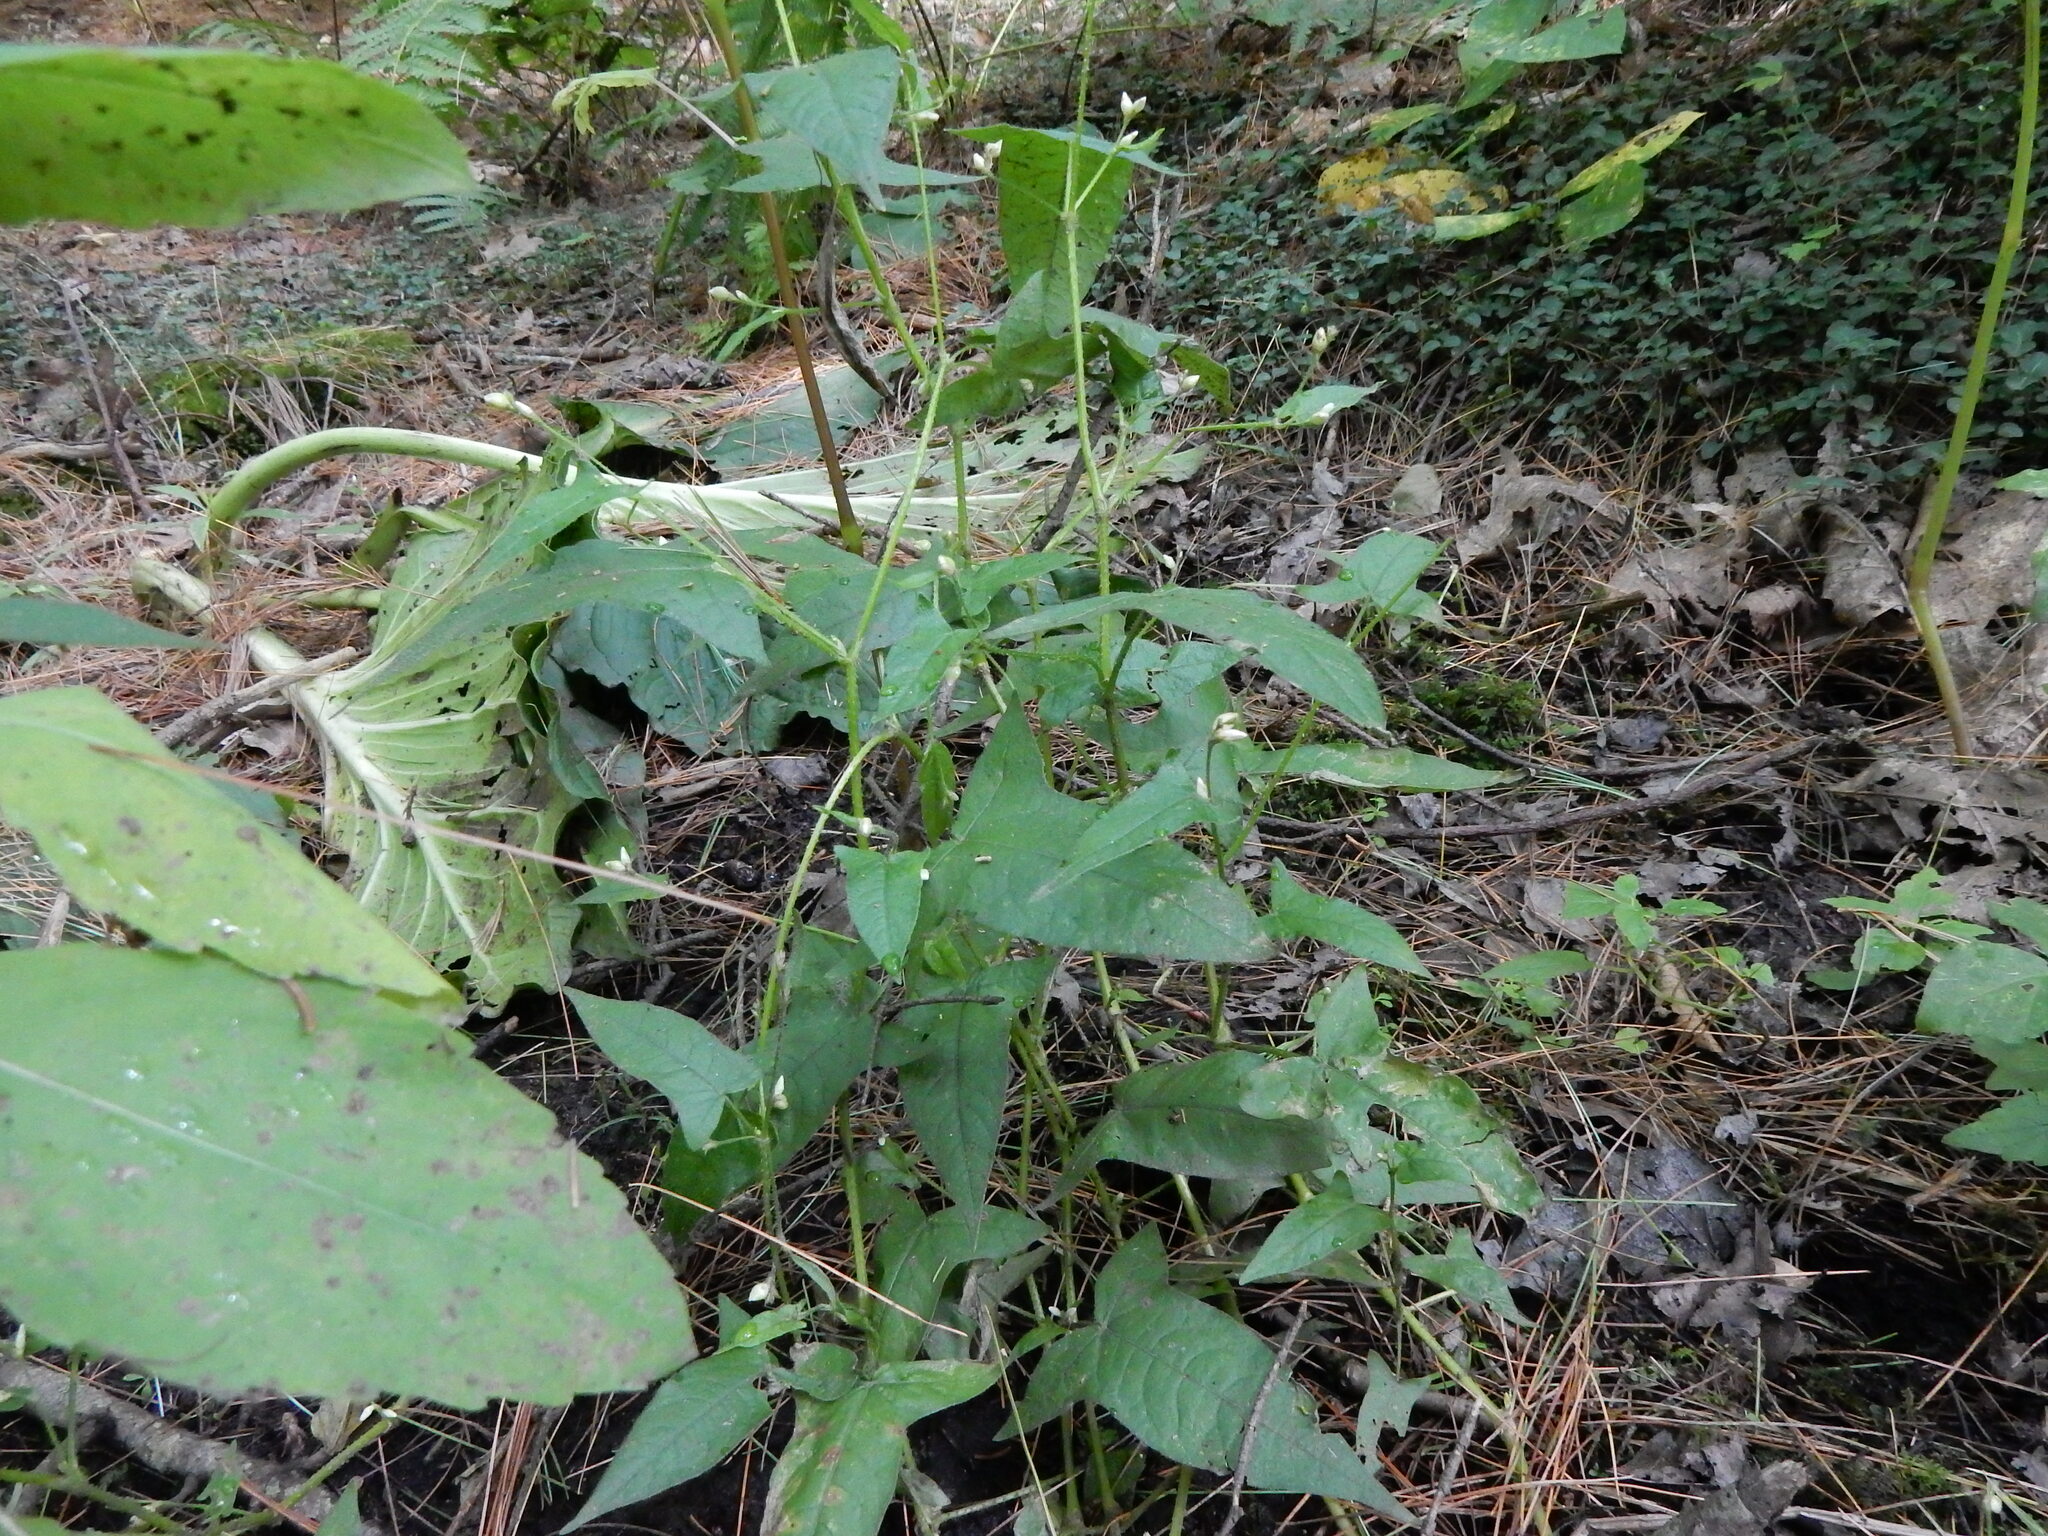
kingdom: Plantae
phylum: Tracheophyta
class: Magnoliopsida
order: Caryophyllales
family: Polygonaceae
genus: Persicaria
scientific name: Persicaria arifolia
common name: Halberd-leaved tear-thumb
